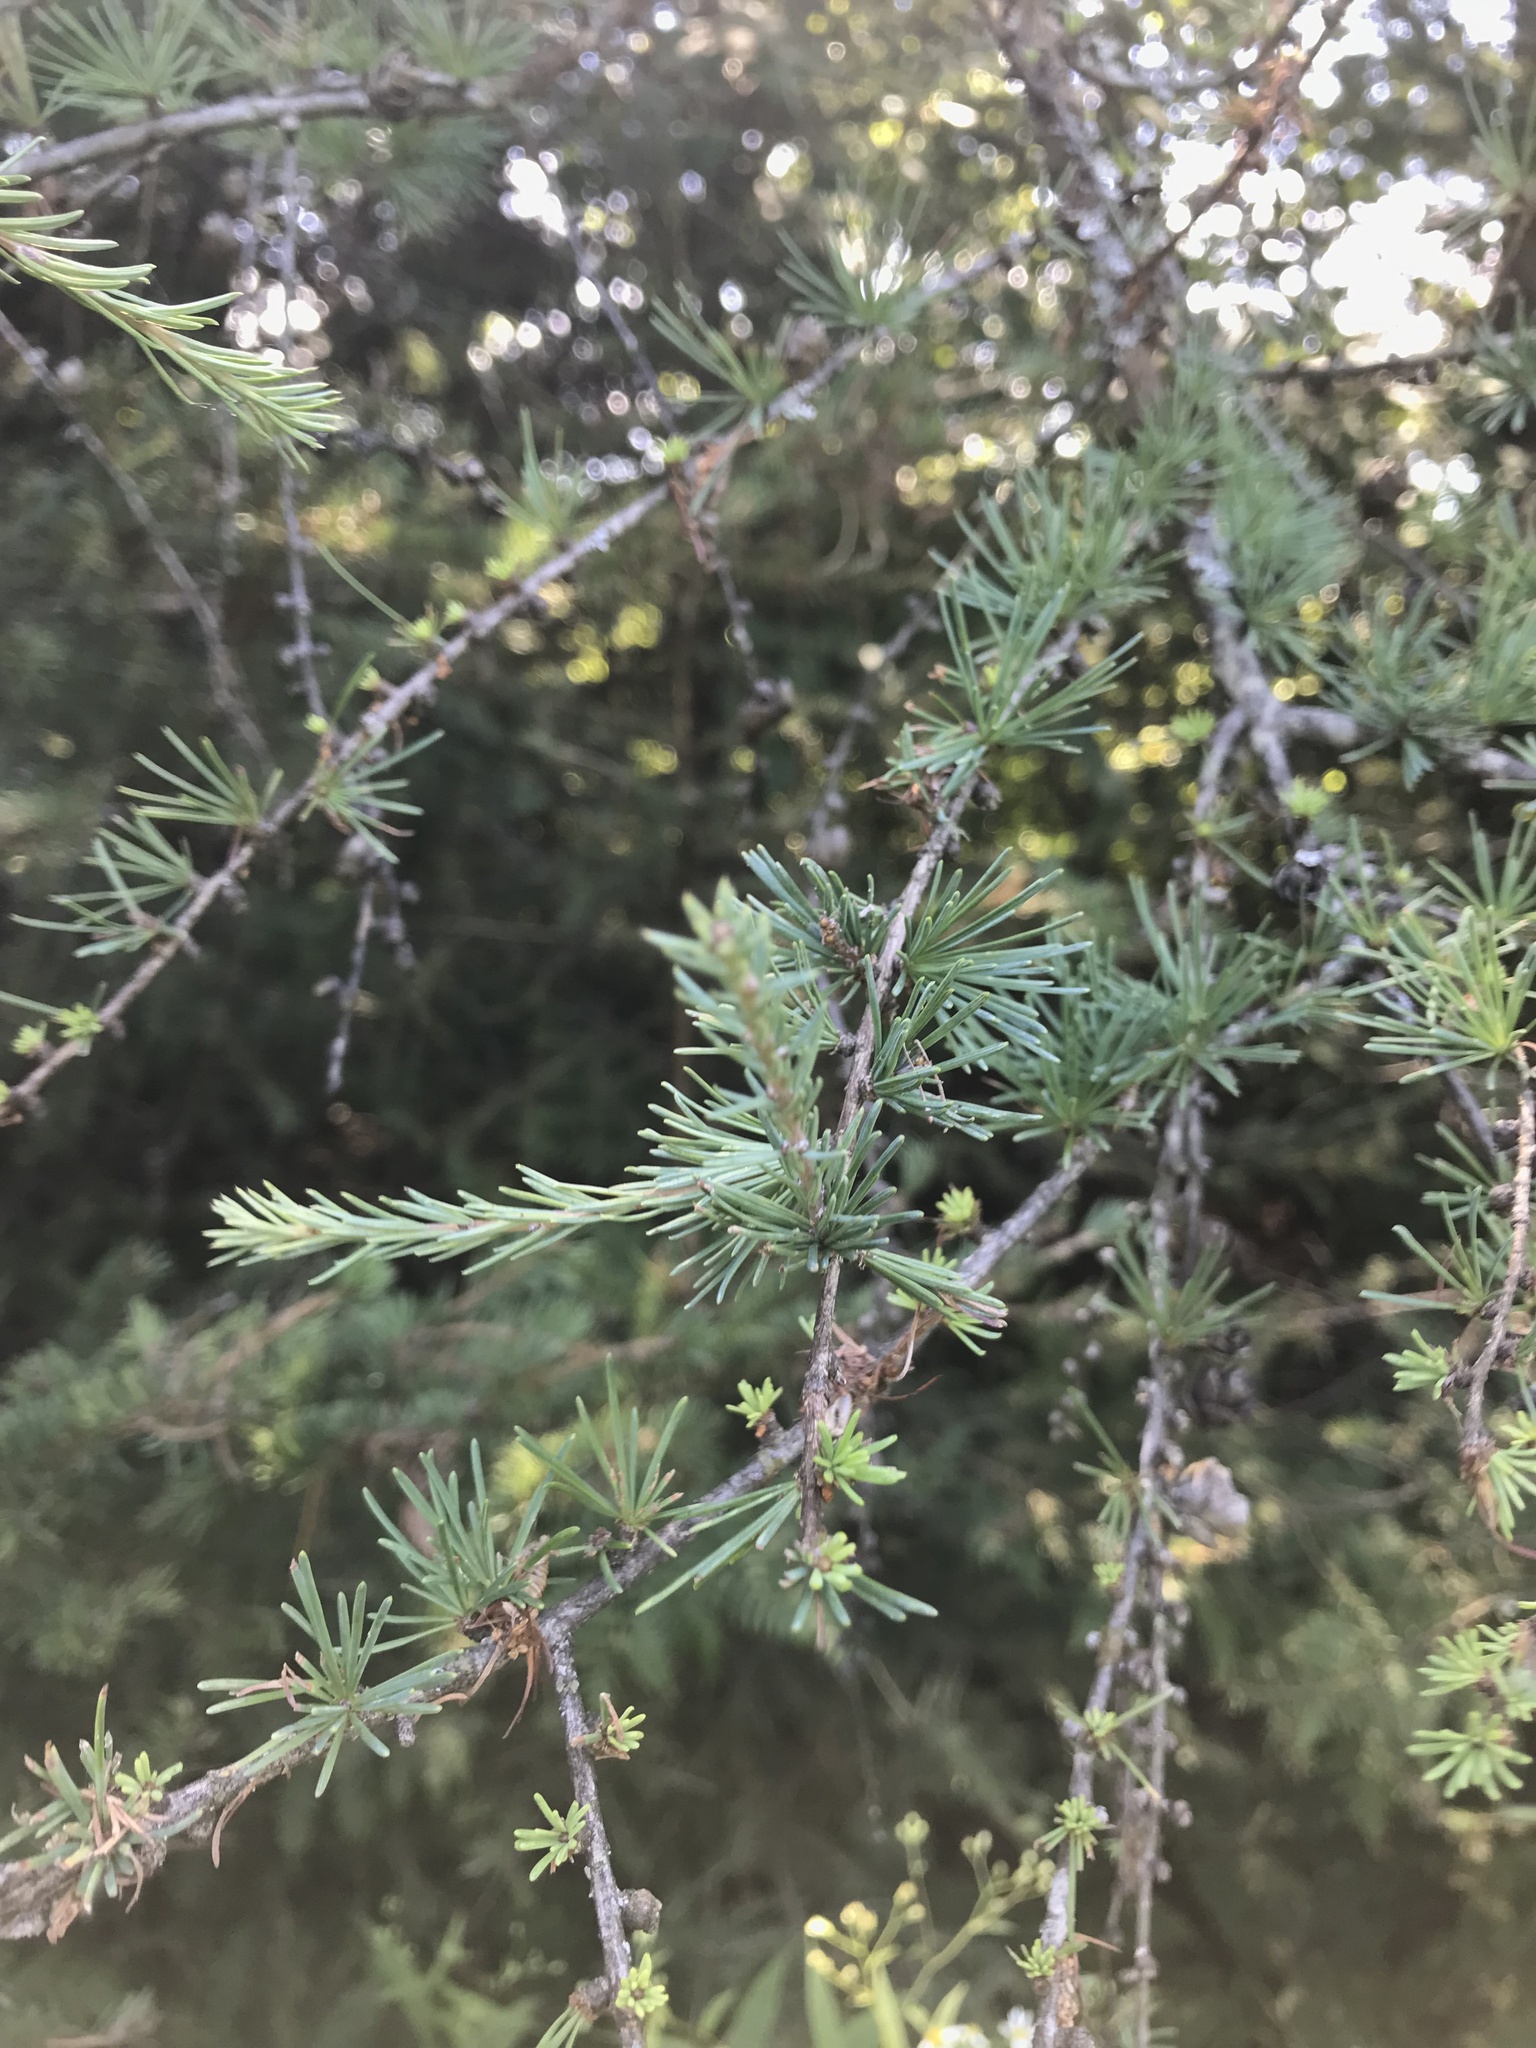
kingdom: Plantae
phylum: Tracheophyta
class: Pinopsida
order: Pinales
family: Pinaceae
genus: Larix
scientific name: Larix laricina
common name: American larch
